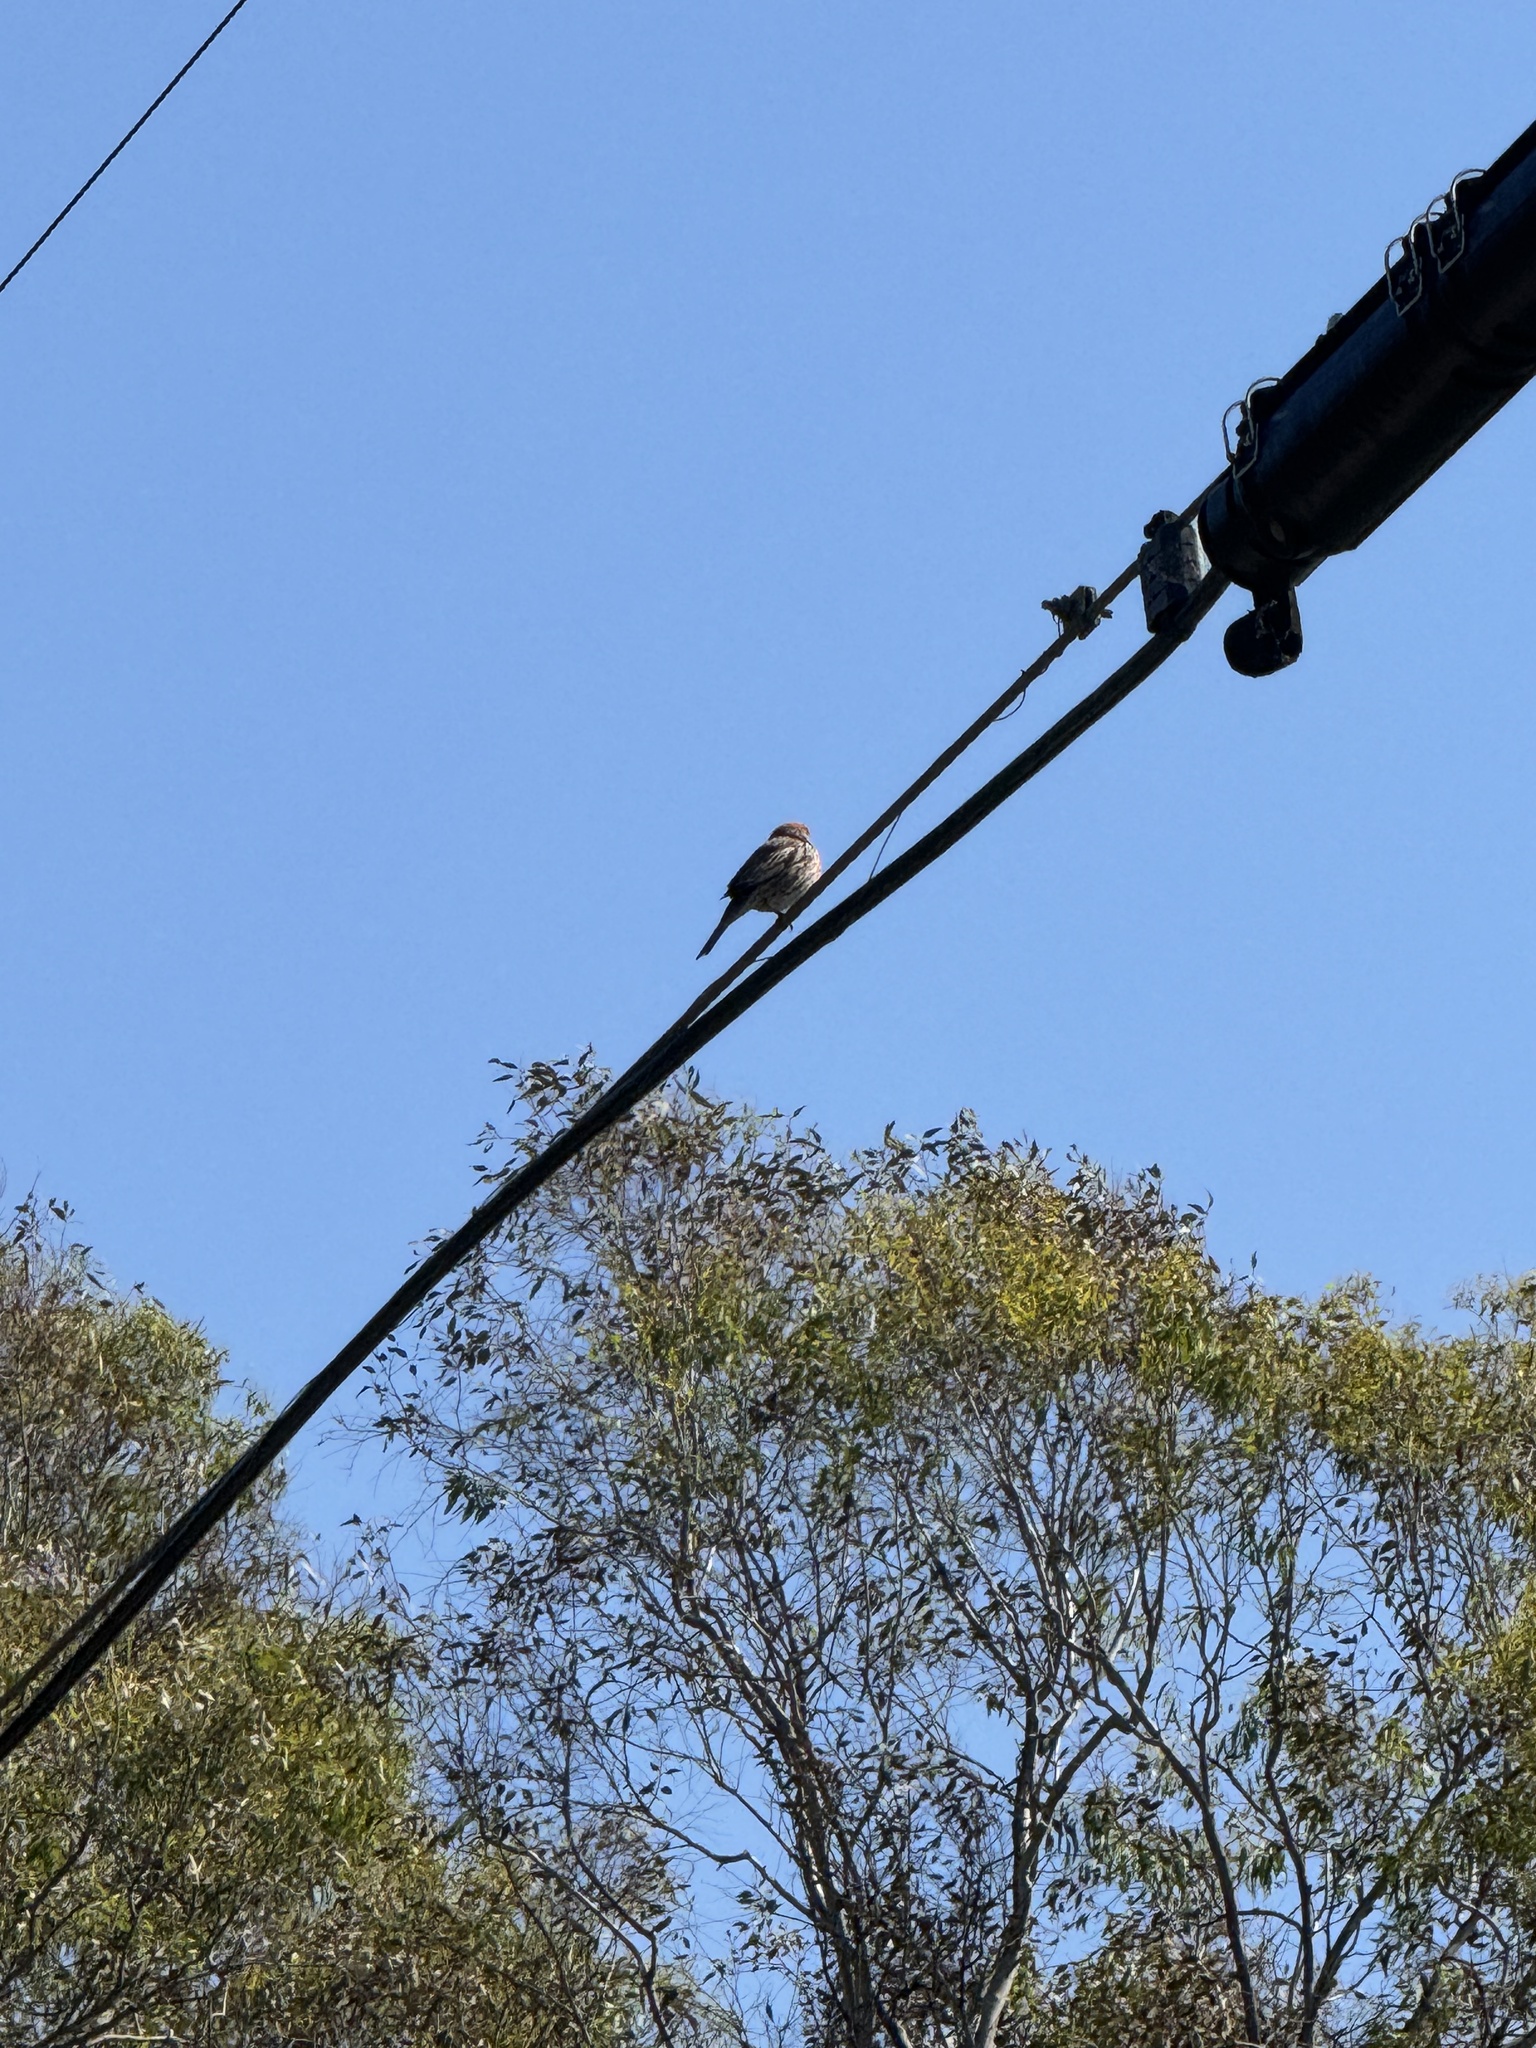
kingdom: Animalia
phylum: Chordata
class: Aves
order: Passeriformes
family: Fringillidae
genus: Haemorhous
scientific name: Haemorhous mexicanus
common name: House finch
